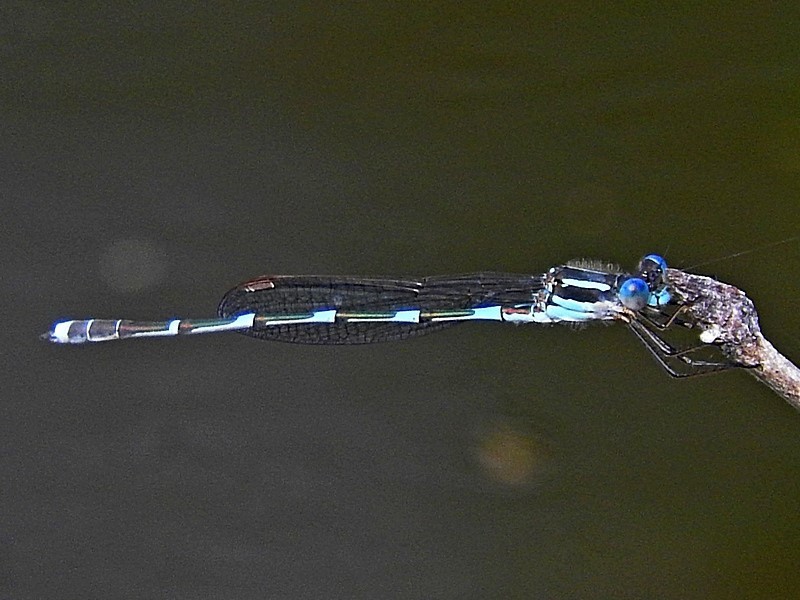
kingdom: Animalia
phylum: Arthropoda
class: Insecta
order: Odonata
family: Lestidae
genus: Austrolestes
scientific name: Austrolestes leda
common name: Wandering ringtail
